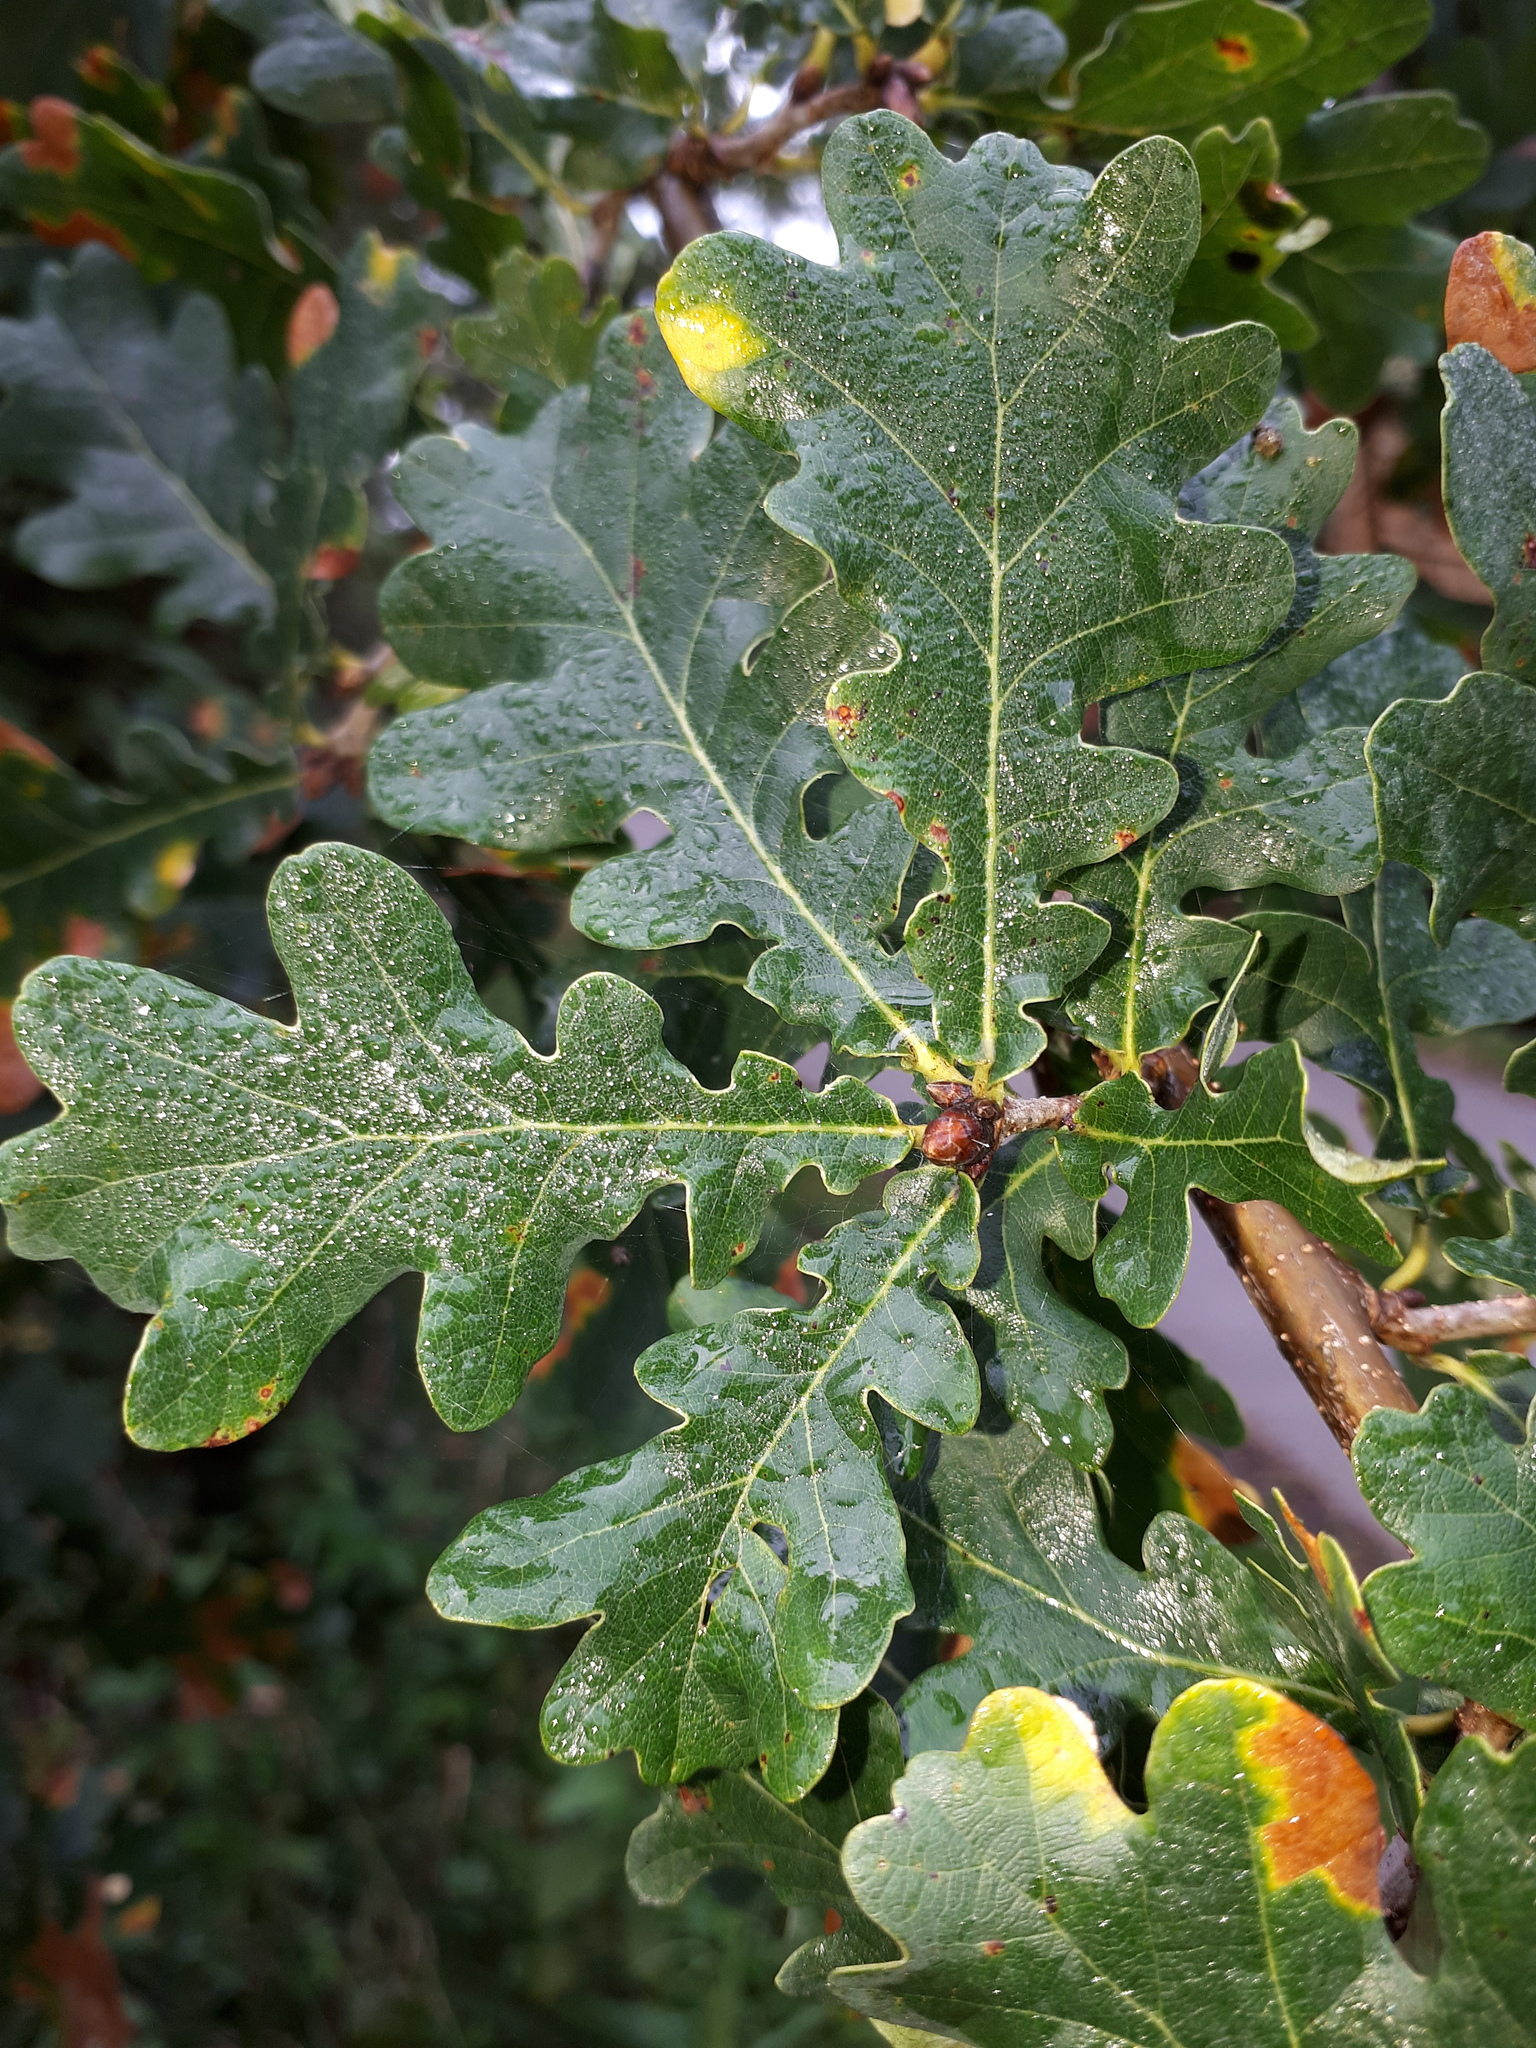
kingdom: Plantae
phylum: Tracheophyta
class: Magnoliopsida
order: Fagales
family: Fagaceae
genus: Quercus
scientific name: Quercus robur
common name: Pedunculate oak
